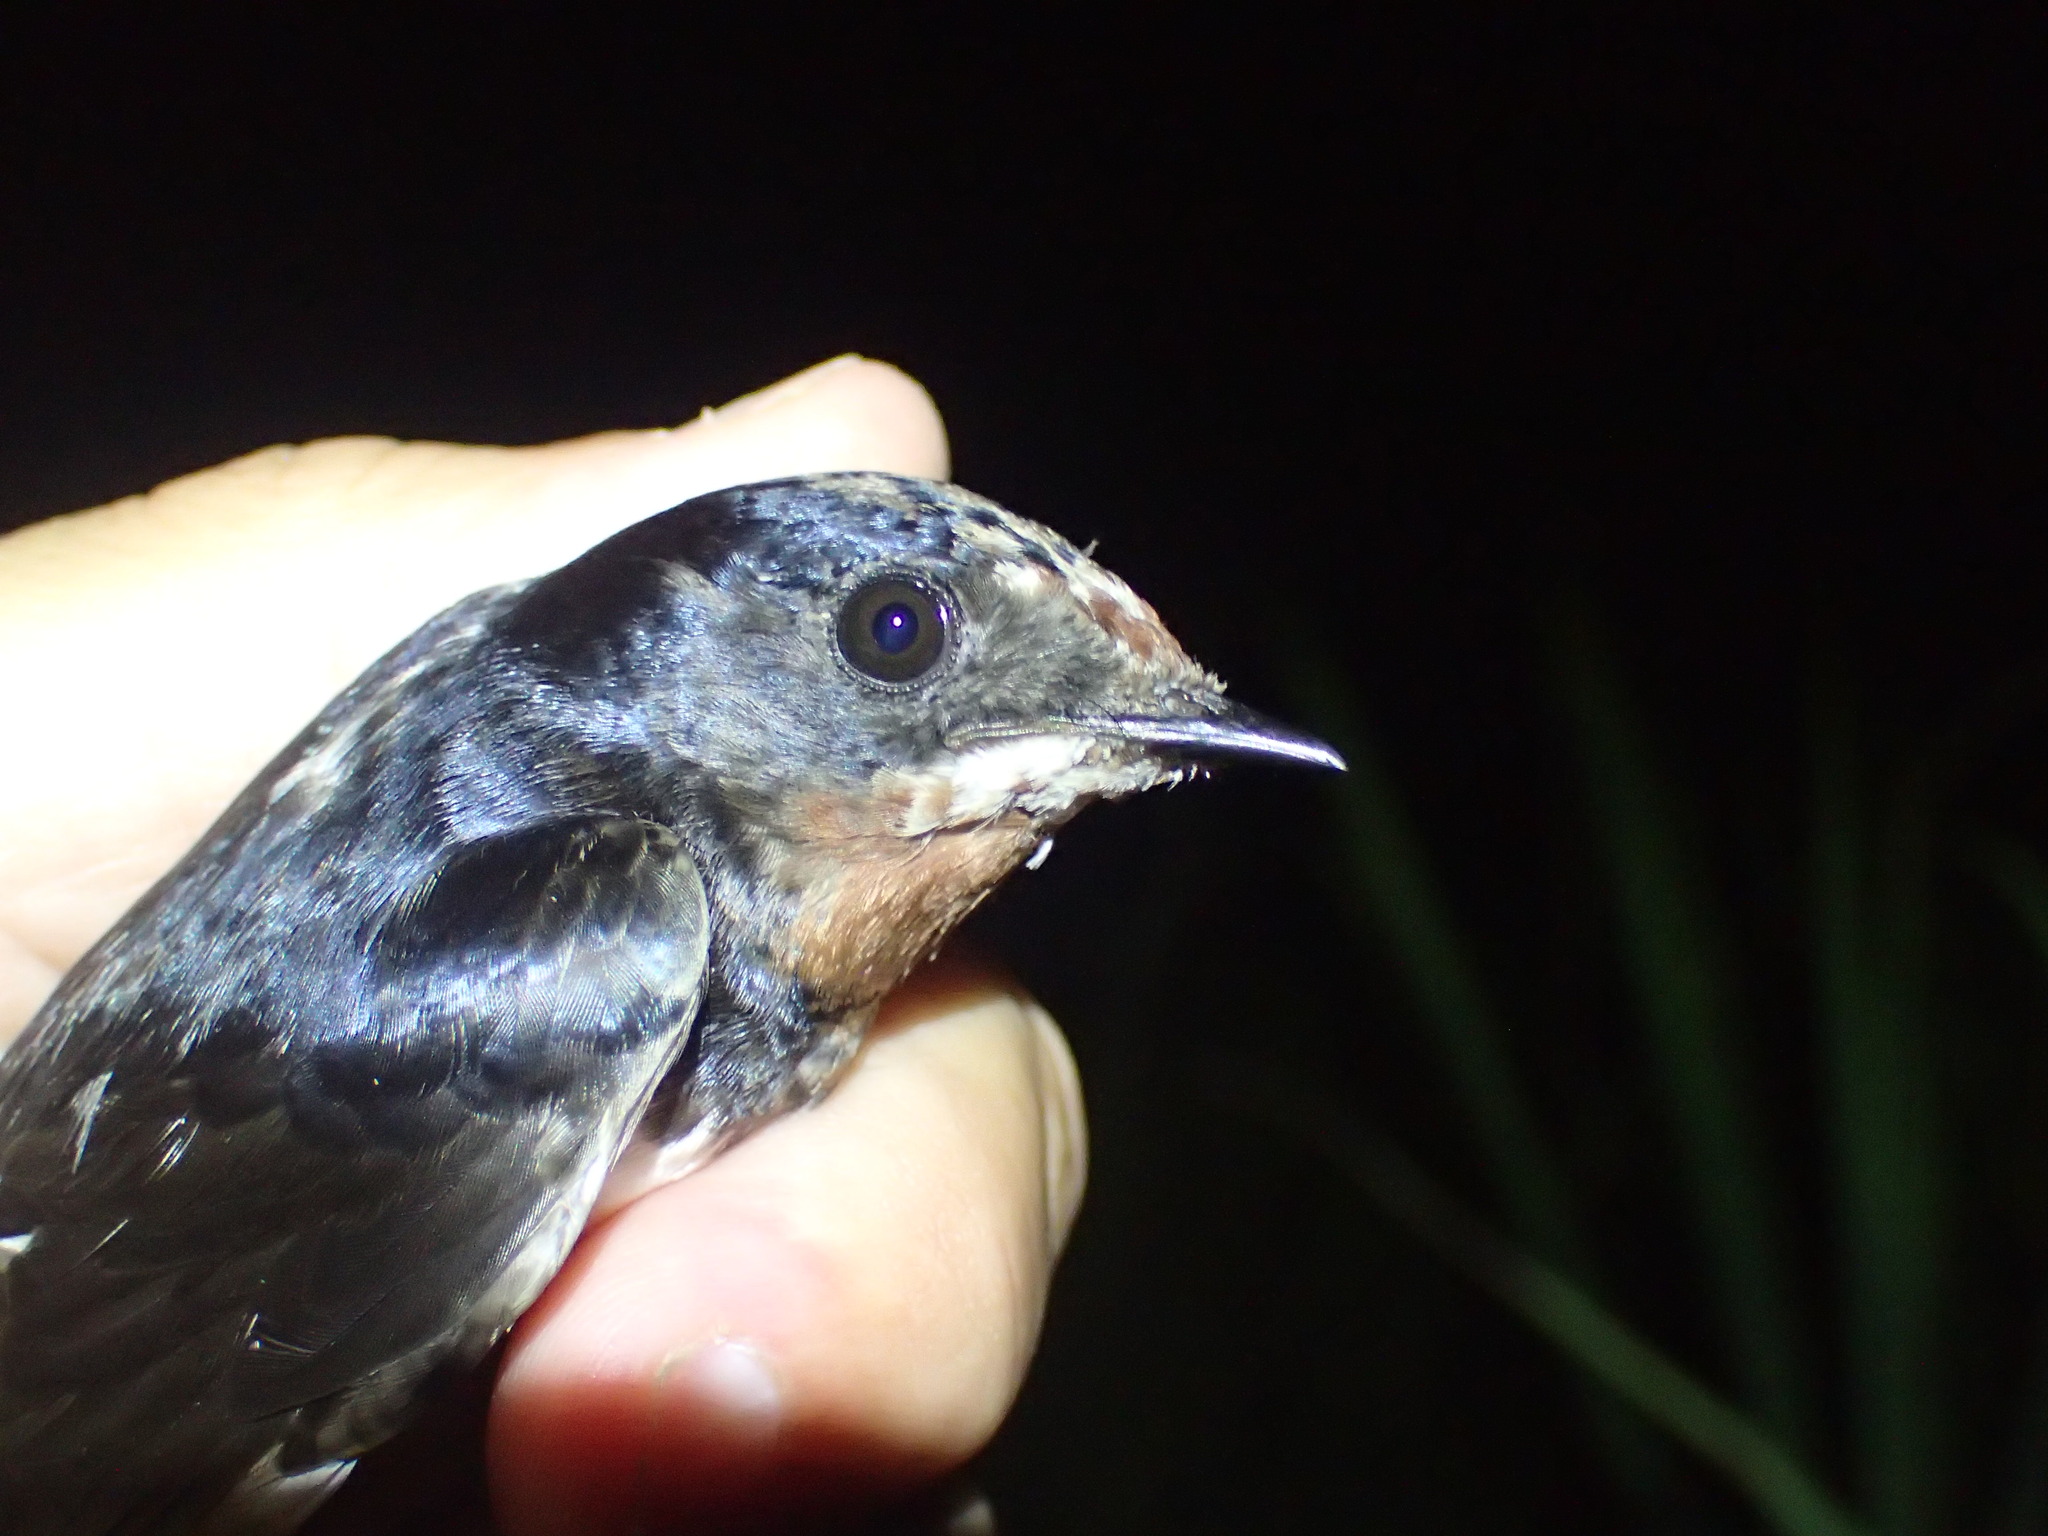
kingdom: Animalia
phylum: Chordata
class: Aves
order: Passeriformes
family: Hirundinidae
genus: Hirundo
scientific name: Hirundo rustica
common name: Barn swallow
